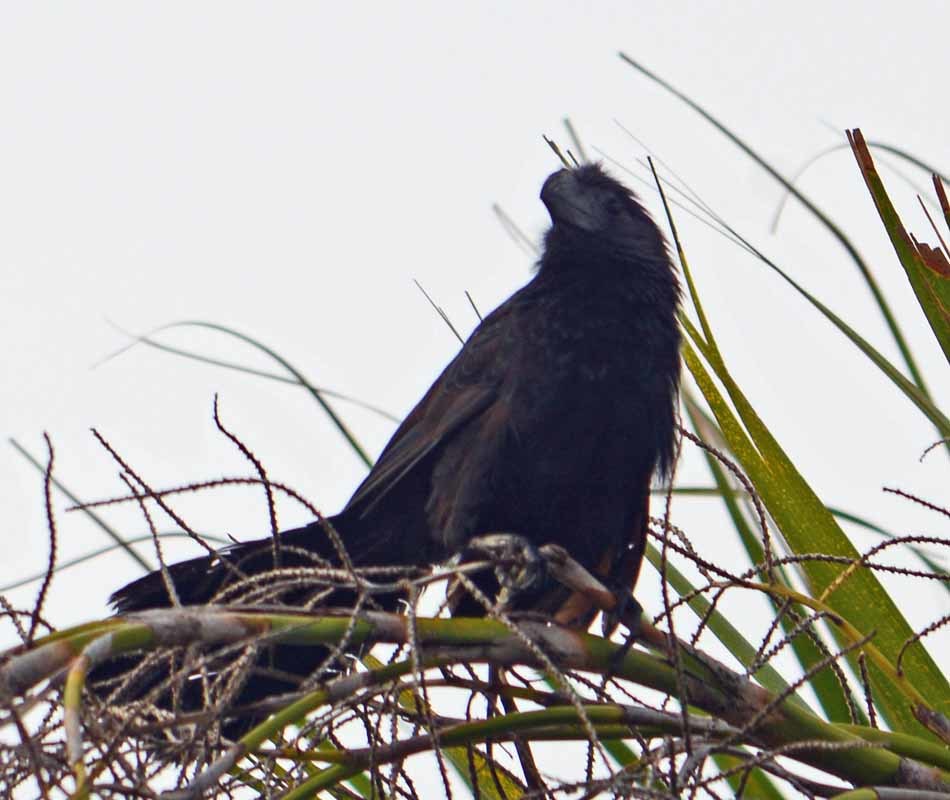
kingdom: Animalia
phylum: Chordata
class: Aves
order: Cuculiformes
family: Cuculidae
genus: Crotophaga
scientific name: Crotophaga sulcirostris
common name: Groove-billed ani
